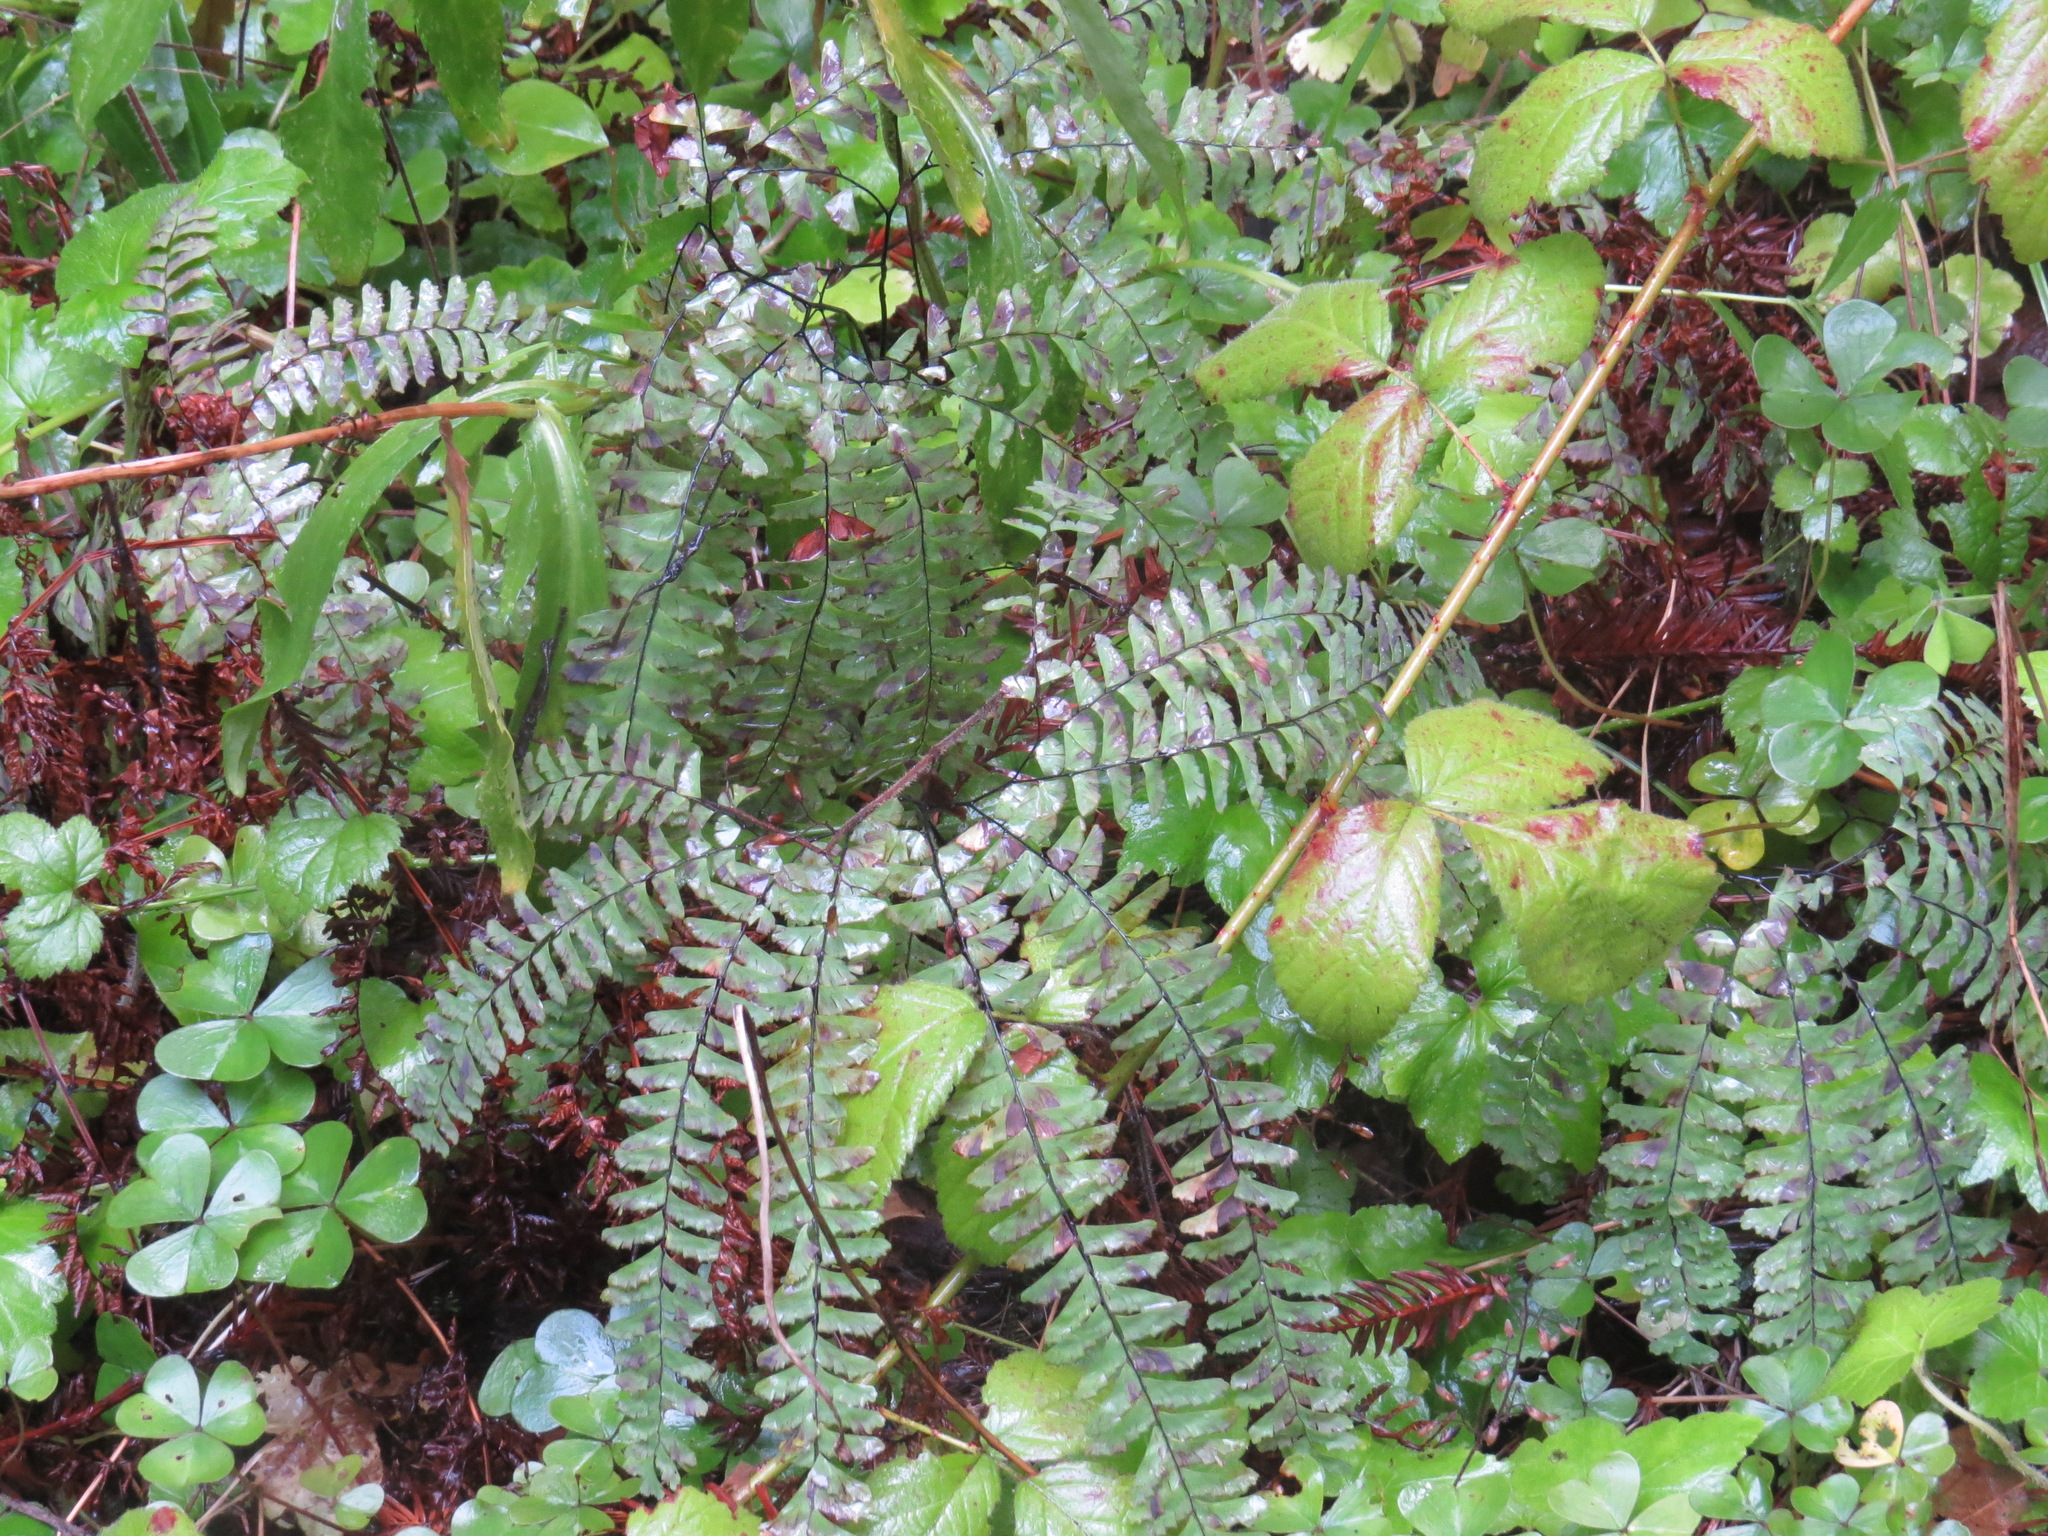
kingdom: Plantae
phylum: Tracheophyta
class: Polypodiopsida
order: Polypodiales
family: Pteridaceae
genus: Adiantum
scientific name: Adiantum aleuticum
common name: Aleutian maidenhair fern
